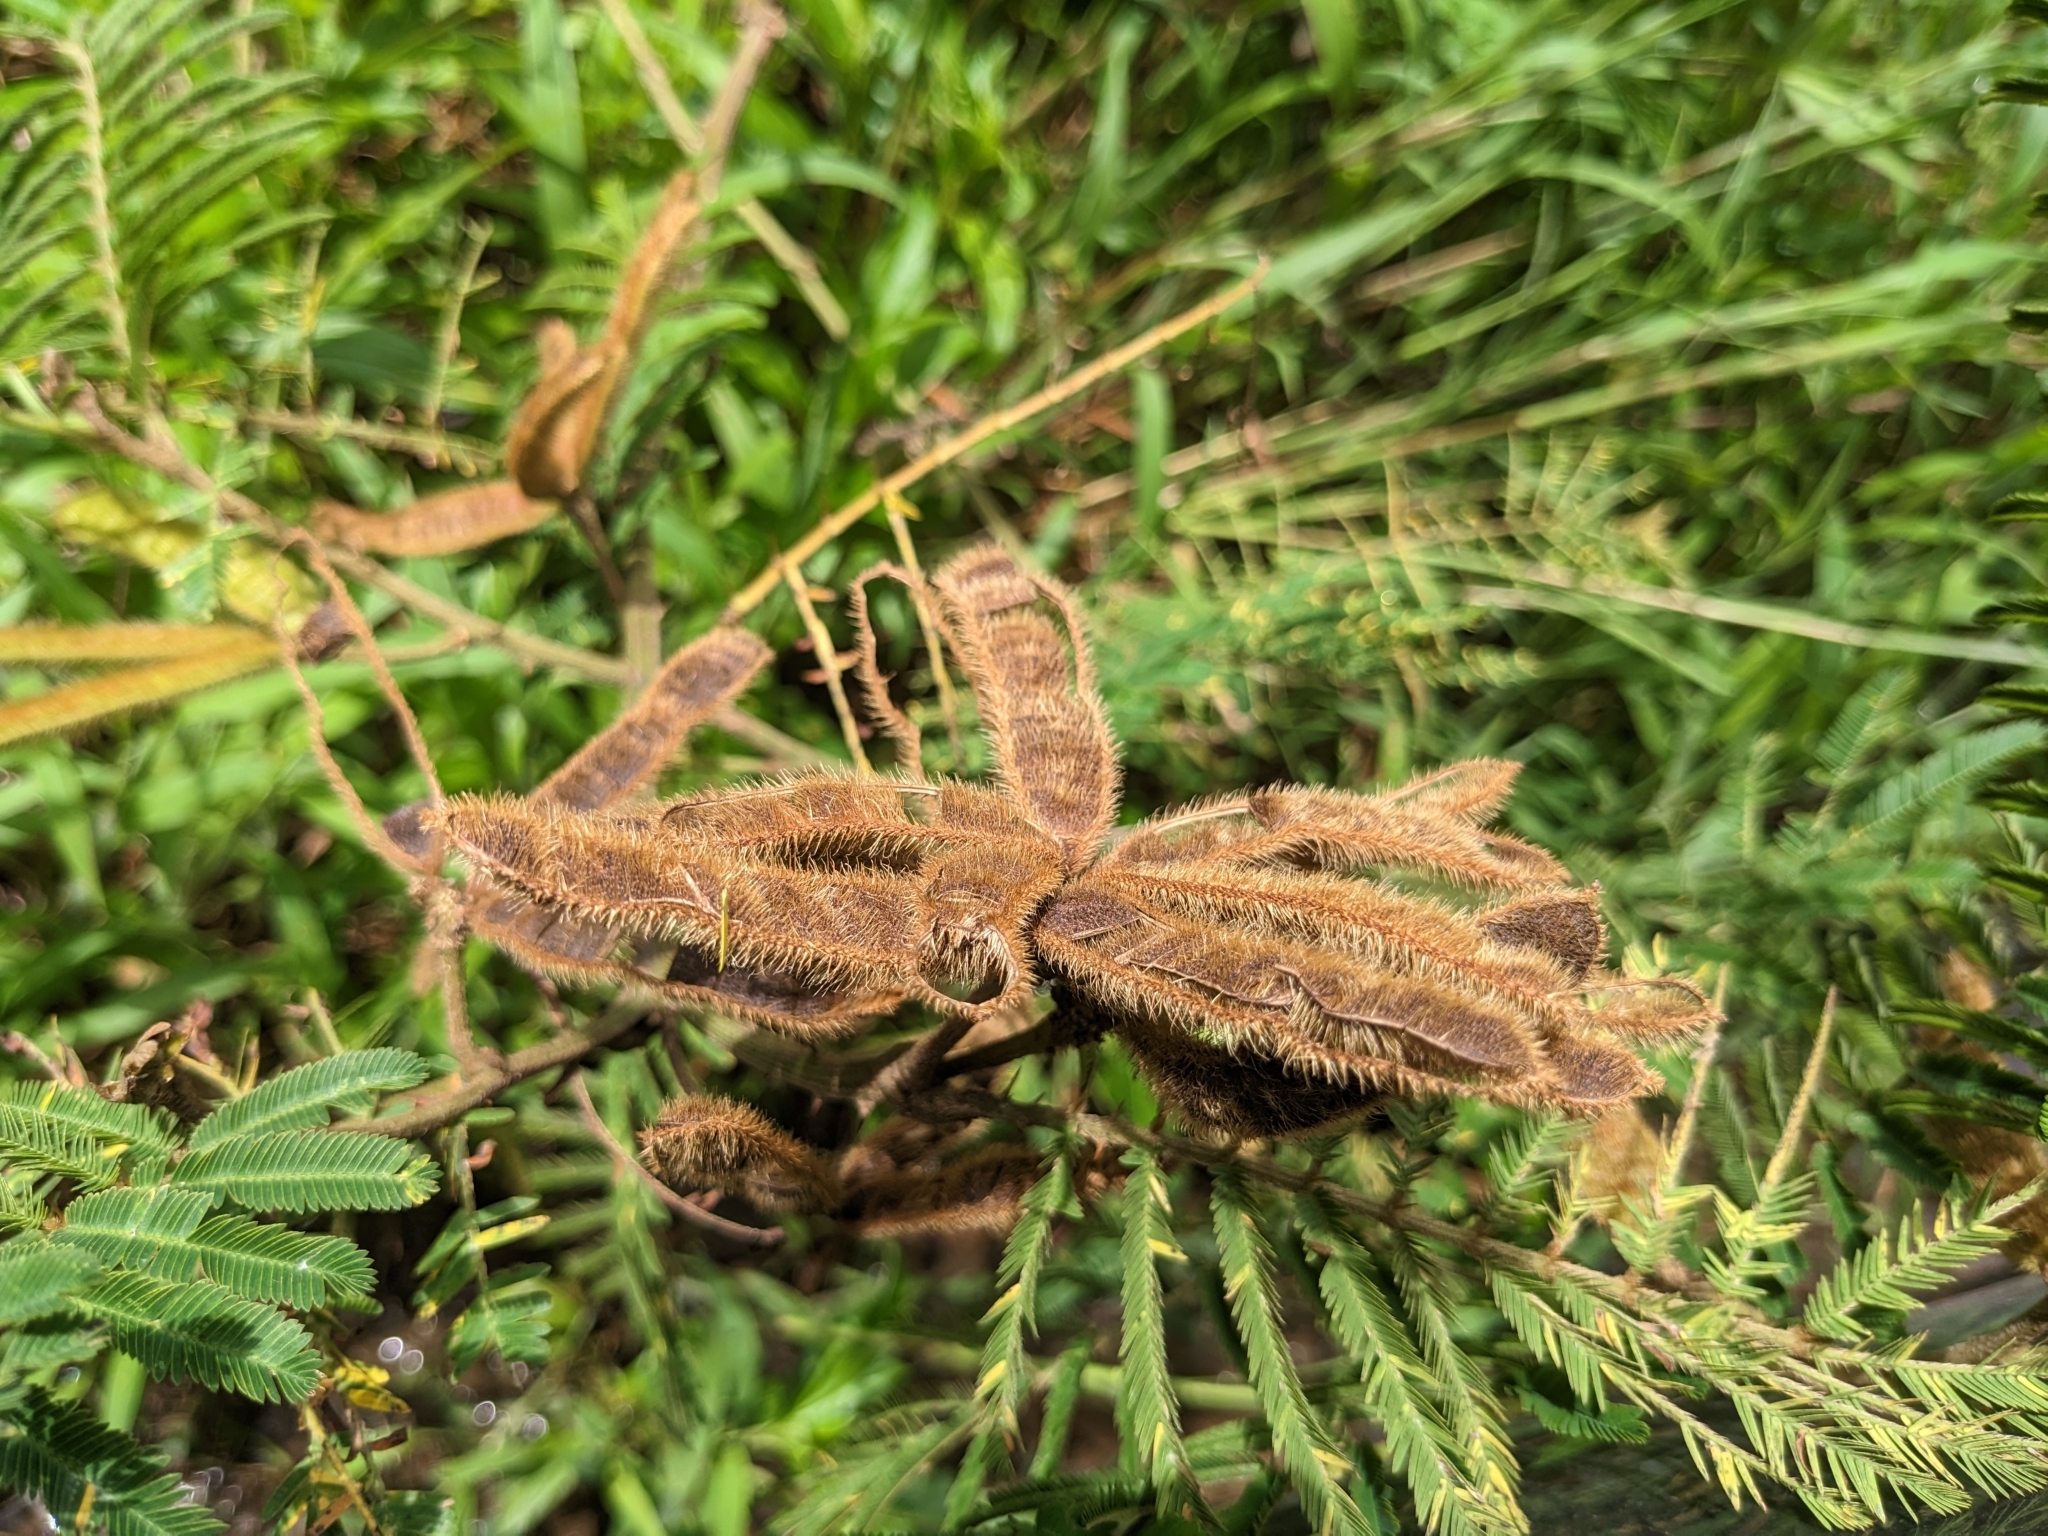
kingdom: Plantae
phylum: Tracheophyta
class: Magnoliopsida
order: Fabales
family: Fabaceae
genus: Mimosa
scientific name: Mimosa pigra
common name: Black mimosa
